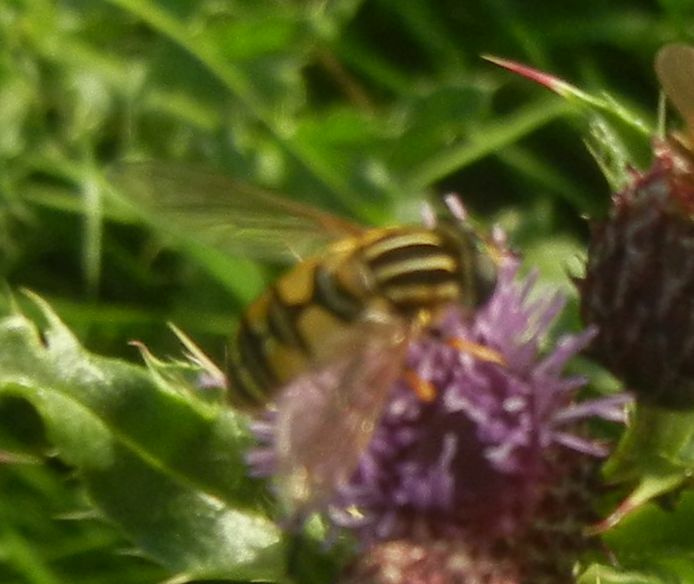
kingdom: Animalia
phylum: Arthropoda
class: Insecta
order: Diptera
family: Syrphidae
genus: Helophilus
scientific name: Helophilus pendulus
